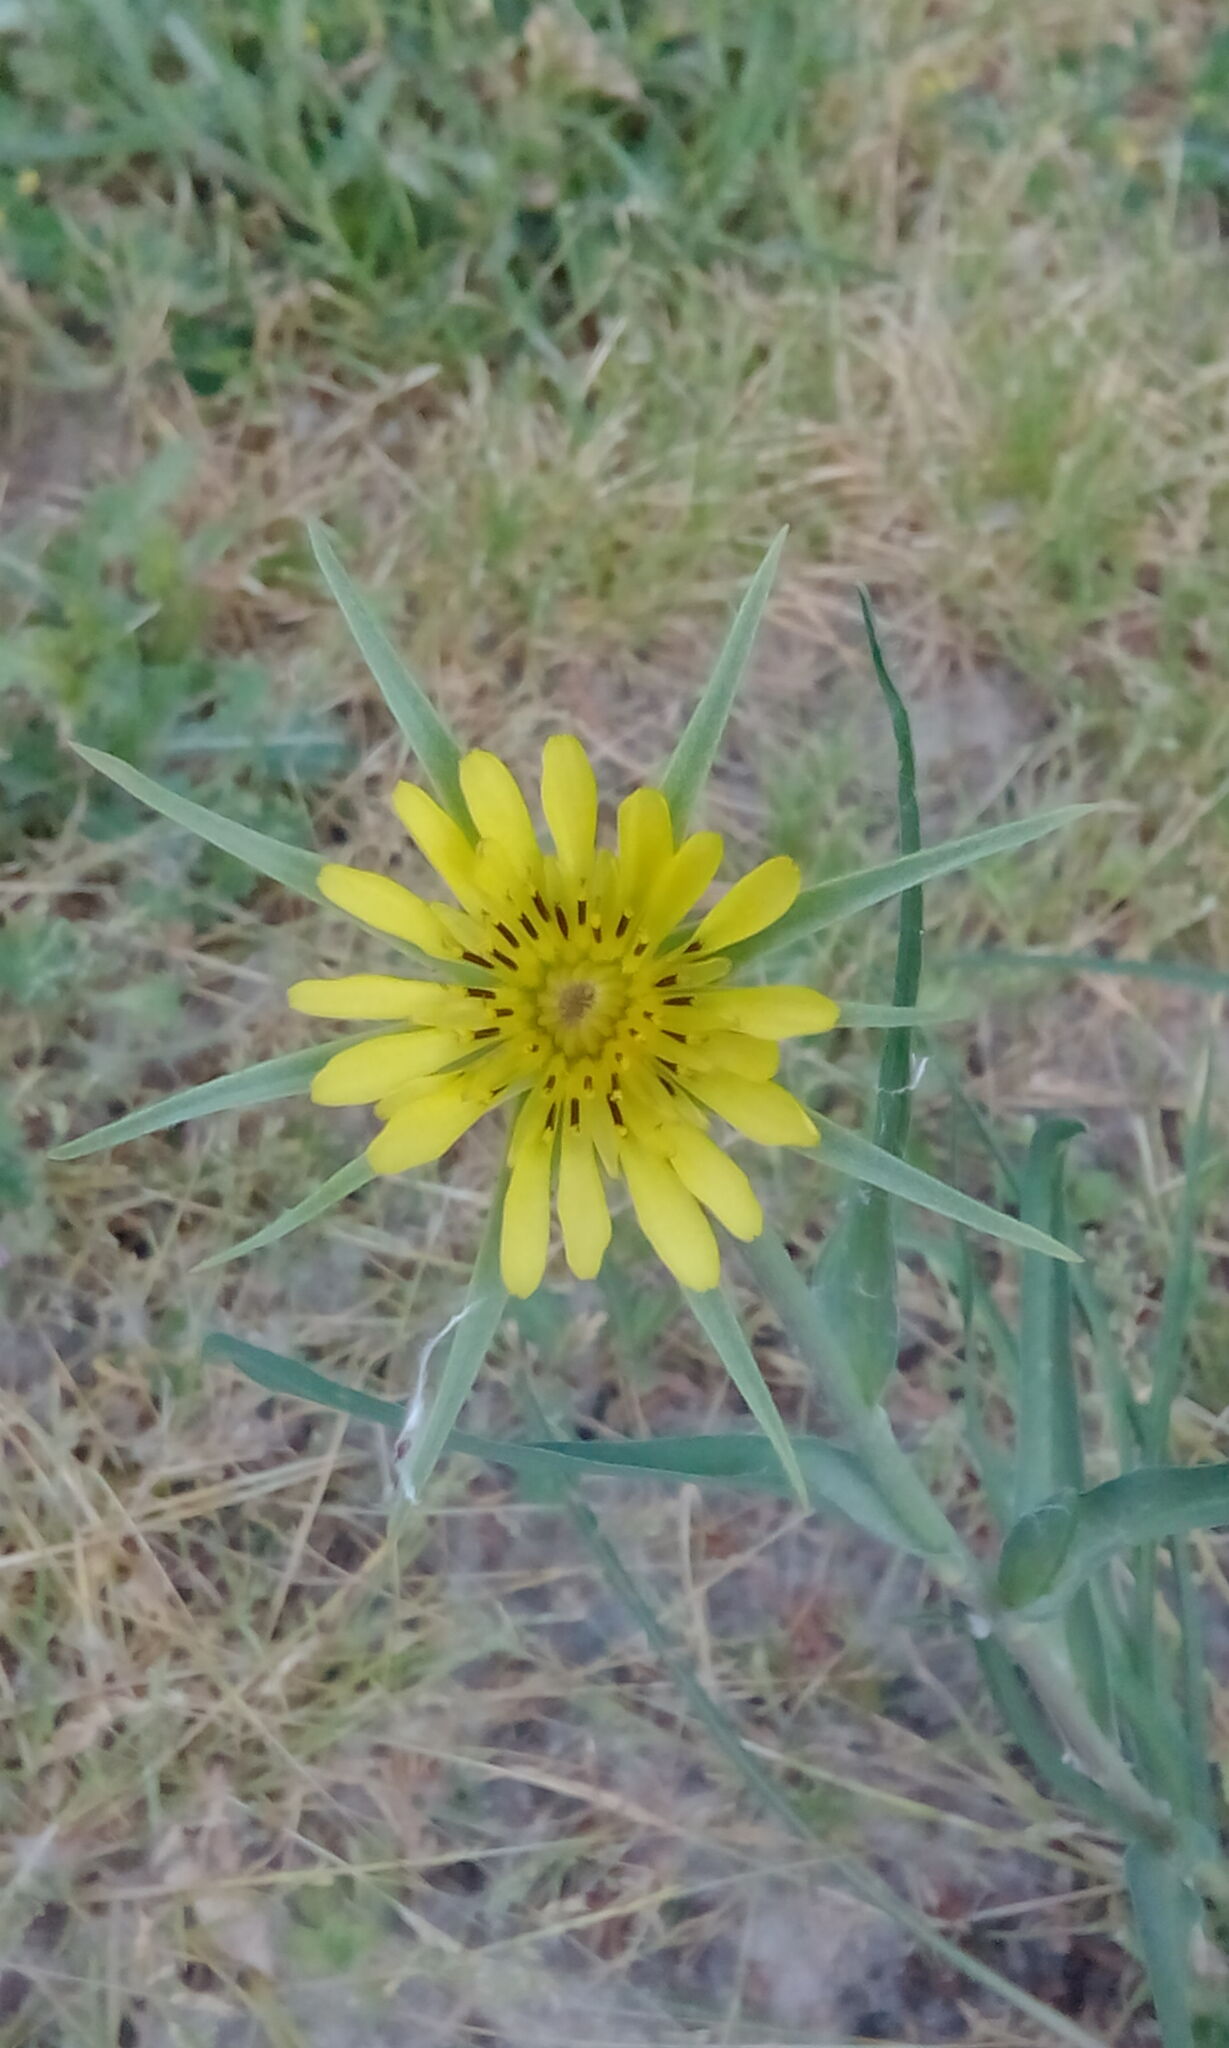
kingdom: Plantae
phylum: Tracheophyta
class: Magnoliopsida
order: Asterales
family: Asteraceae
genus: Tragopogon
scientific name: Tragopogon dubius
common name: Yellow salsify
